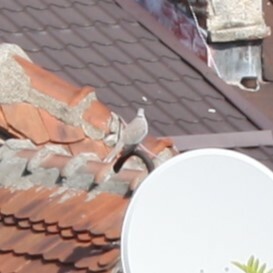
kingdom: Animalia
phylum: Chordata
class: Aves
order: Columbiformes
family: Columbidae
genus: Streptopelia
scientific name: Streptopelia decaocto
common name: Eurasian collared dove
